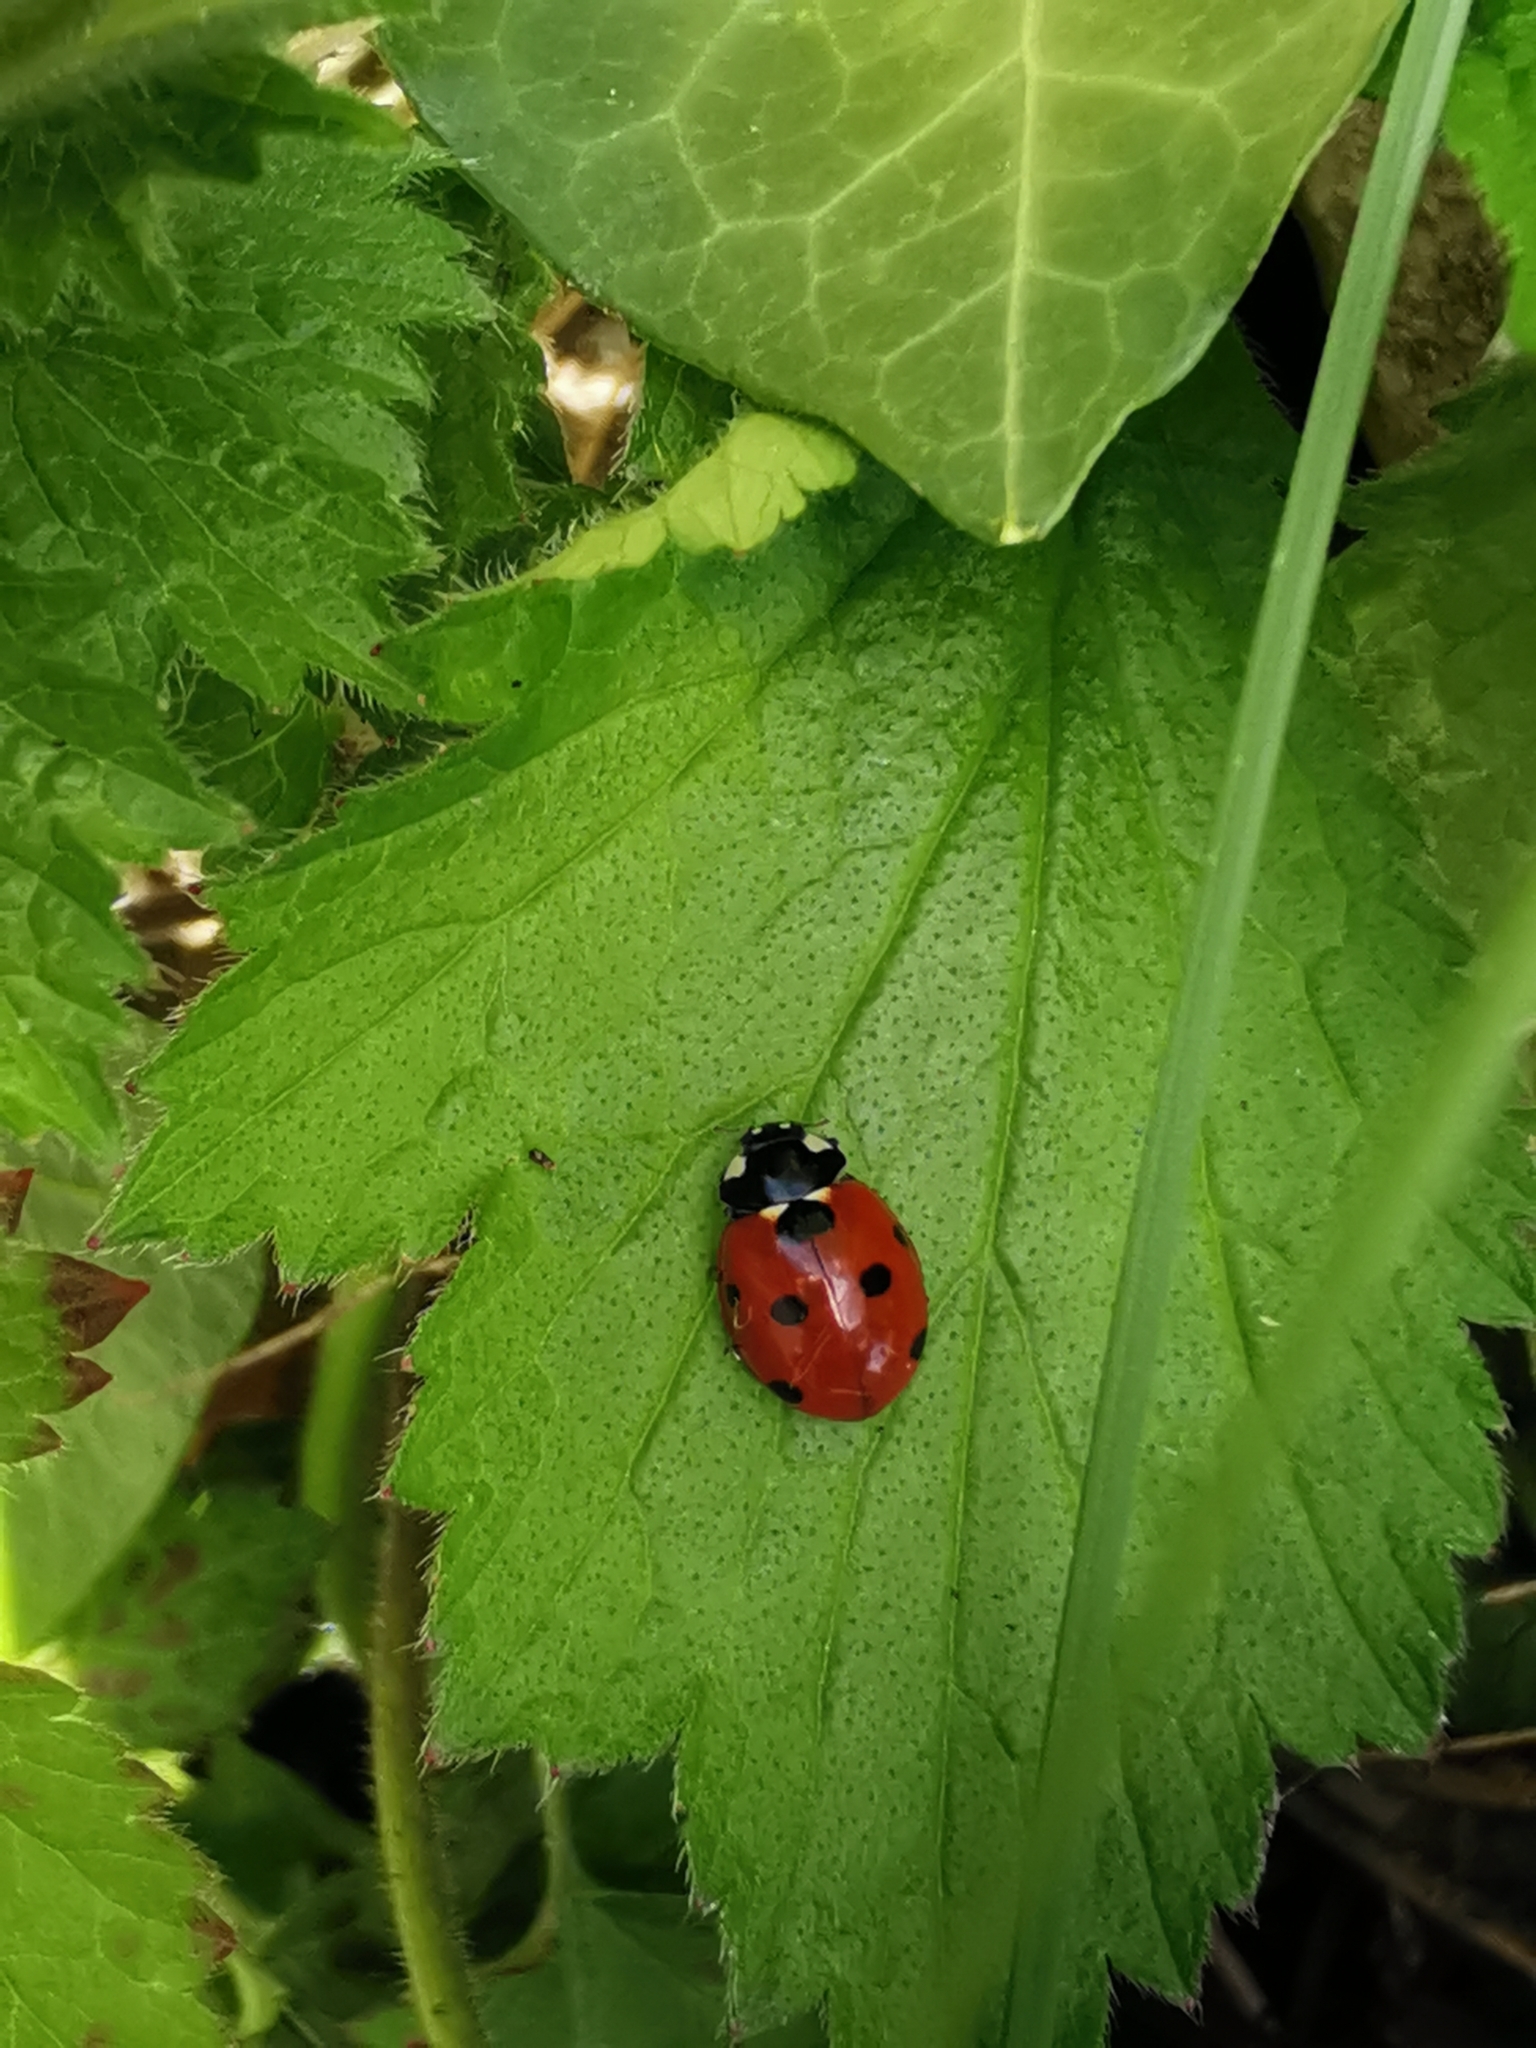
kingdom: Animalia
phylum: Arthropoda
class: Insecta
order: Coleoptera
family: Coccinellidae
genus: Coccinella
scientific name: Coccinella septempunctata
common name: Sevenspotted lady beetle
